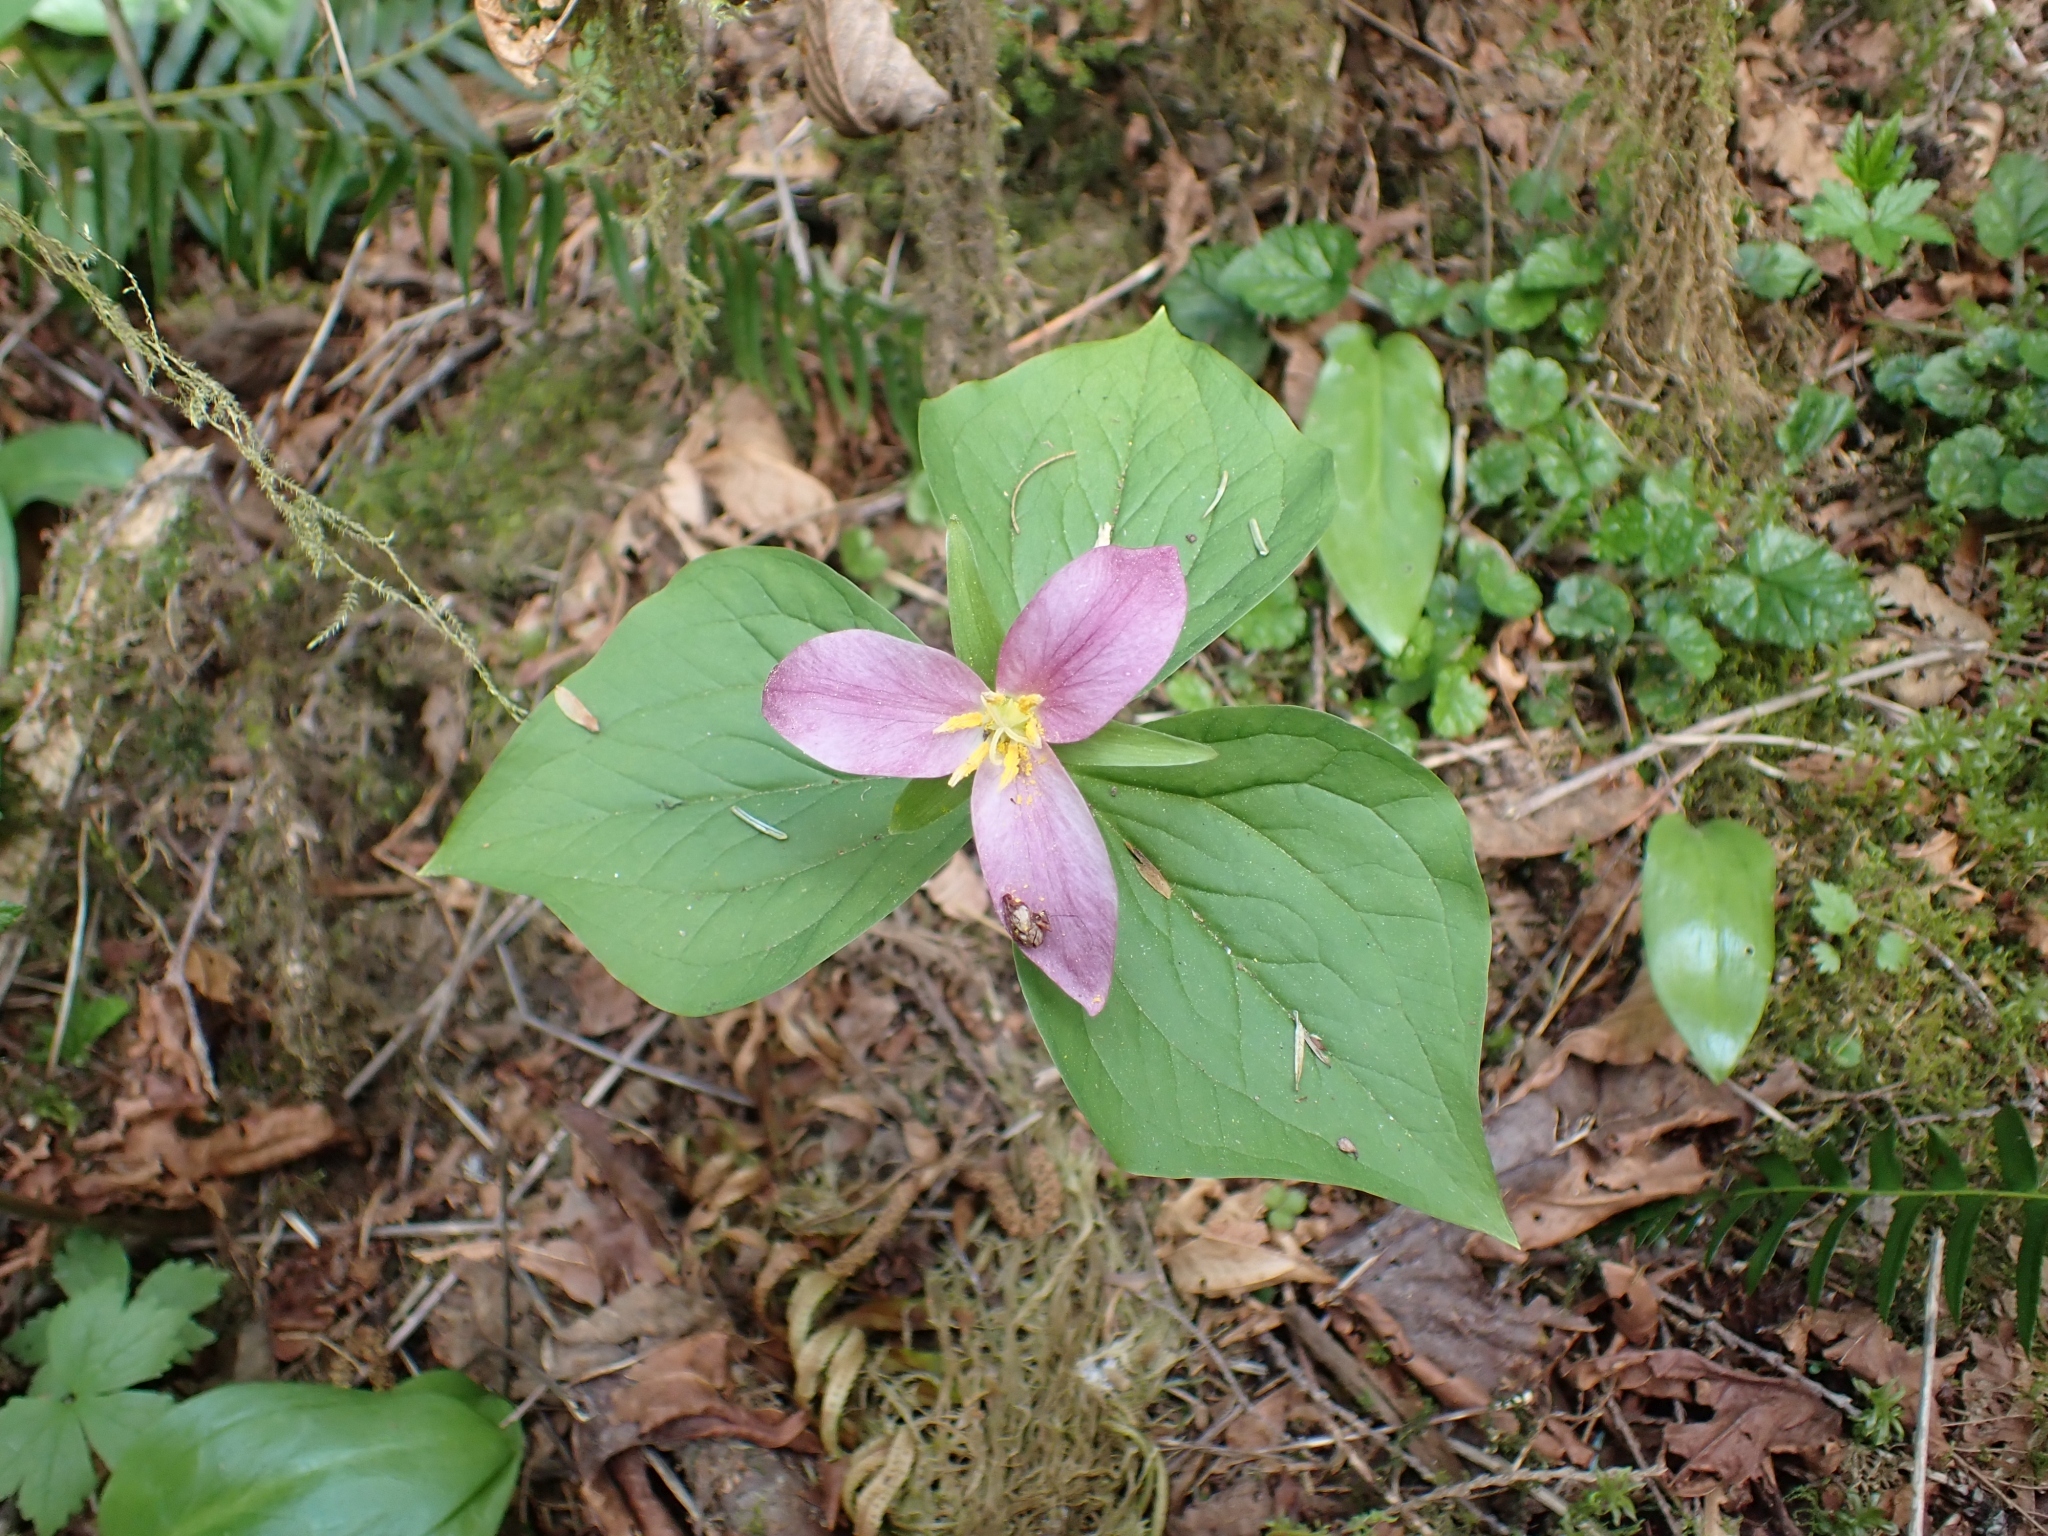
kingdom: Plantae
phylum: Tracheophyta
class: Liliopsida
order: Liliales
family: Melanthiaceae
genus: Trillium
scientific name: Trillium ovatum
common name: Pacific trillium
